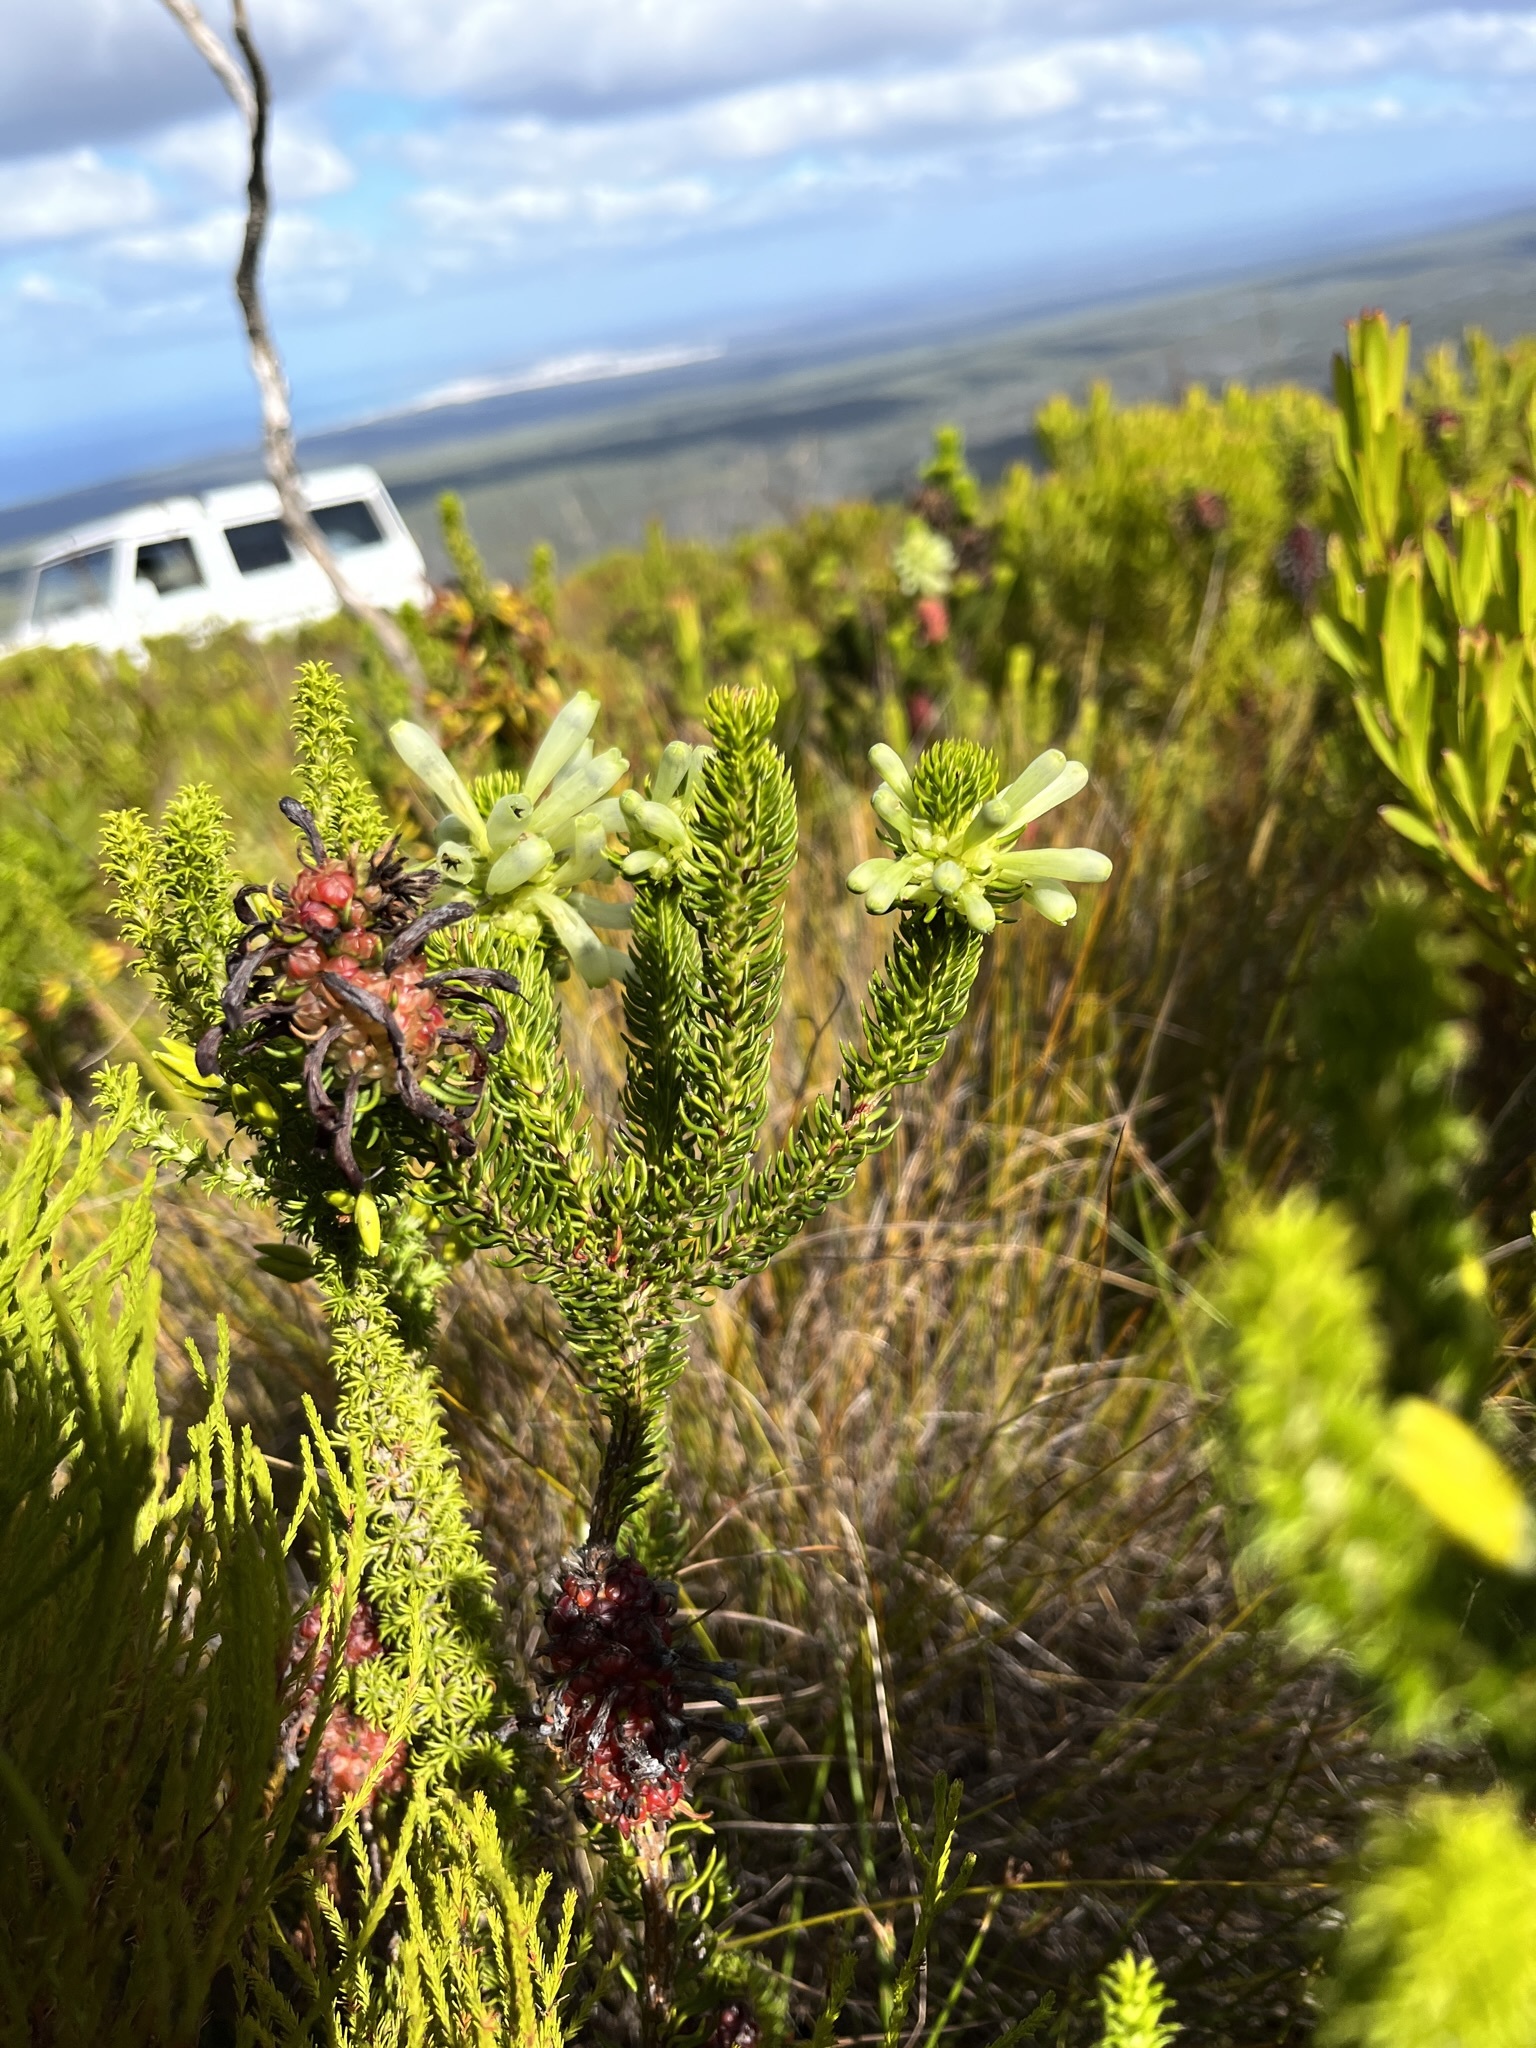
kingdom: Plantae
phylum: Tracheophyta
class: Magnoliopsida
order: Ericales
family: Ericaceae
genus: Erica
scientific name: Erica sessiliflora
